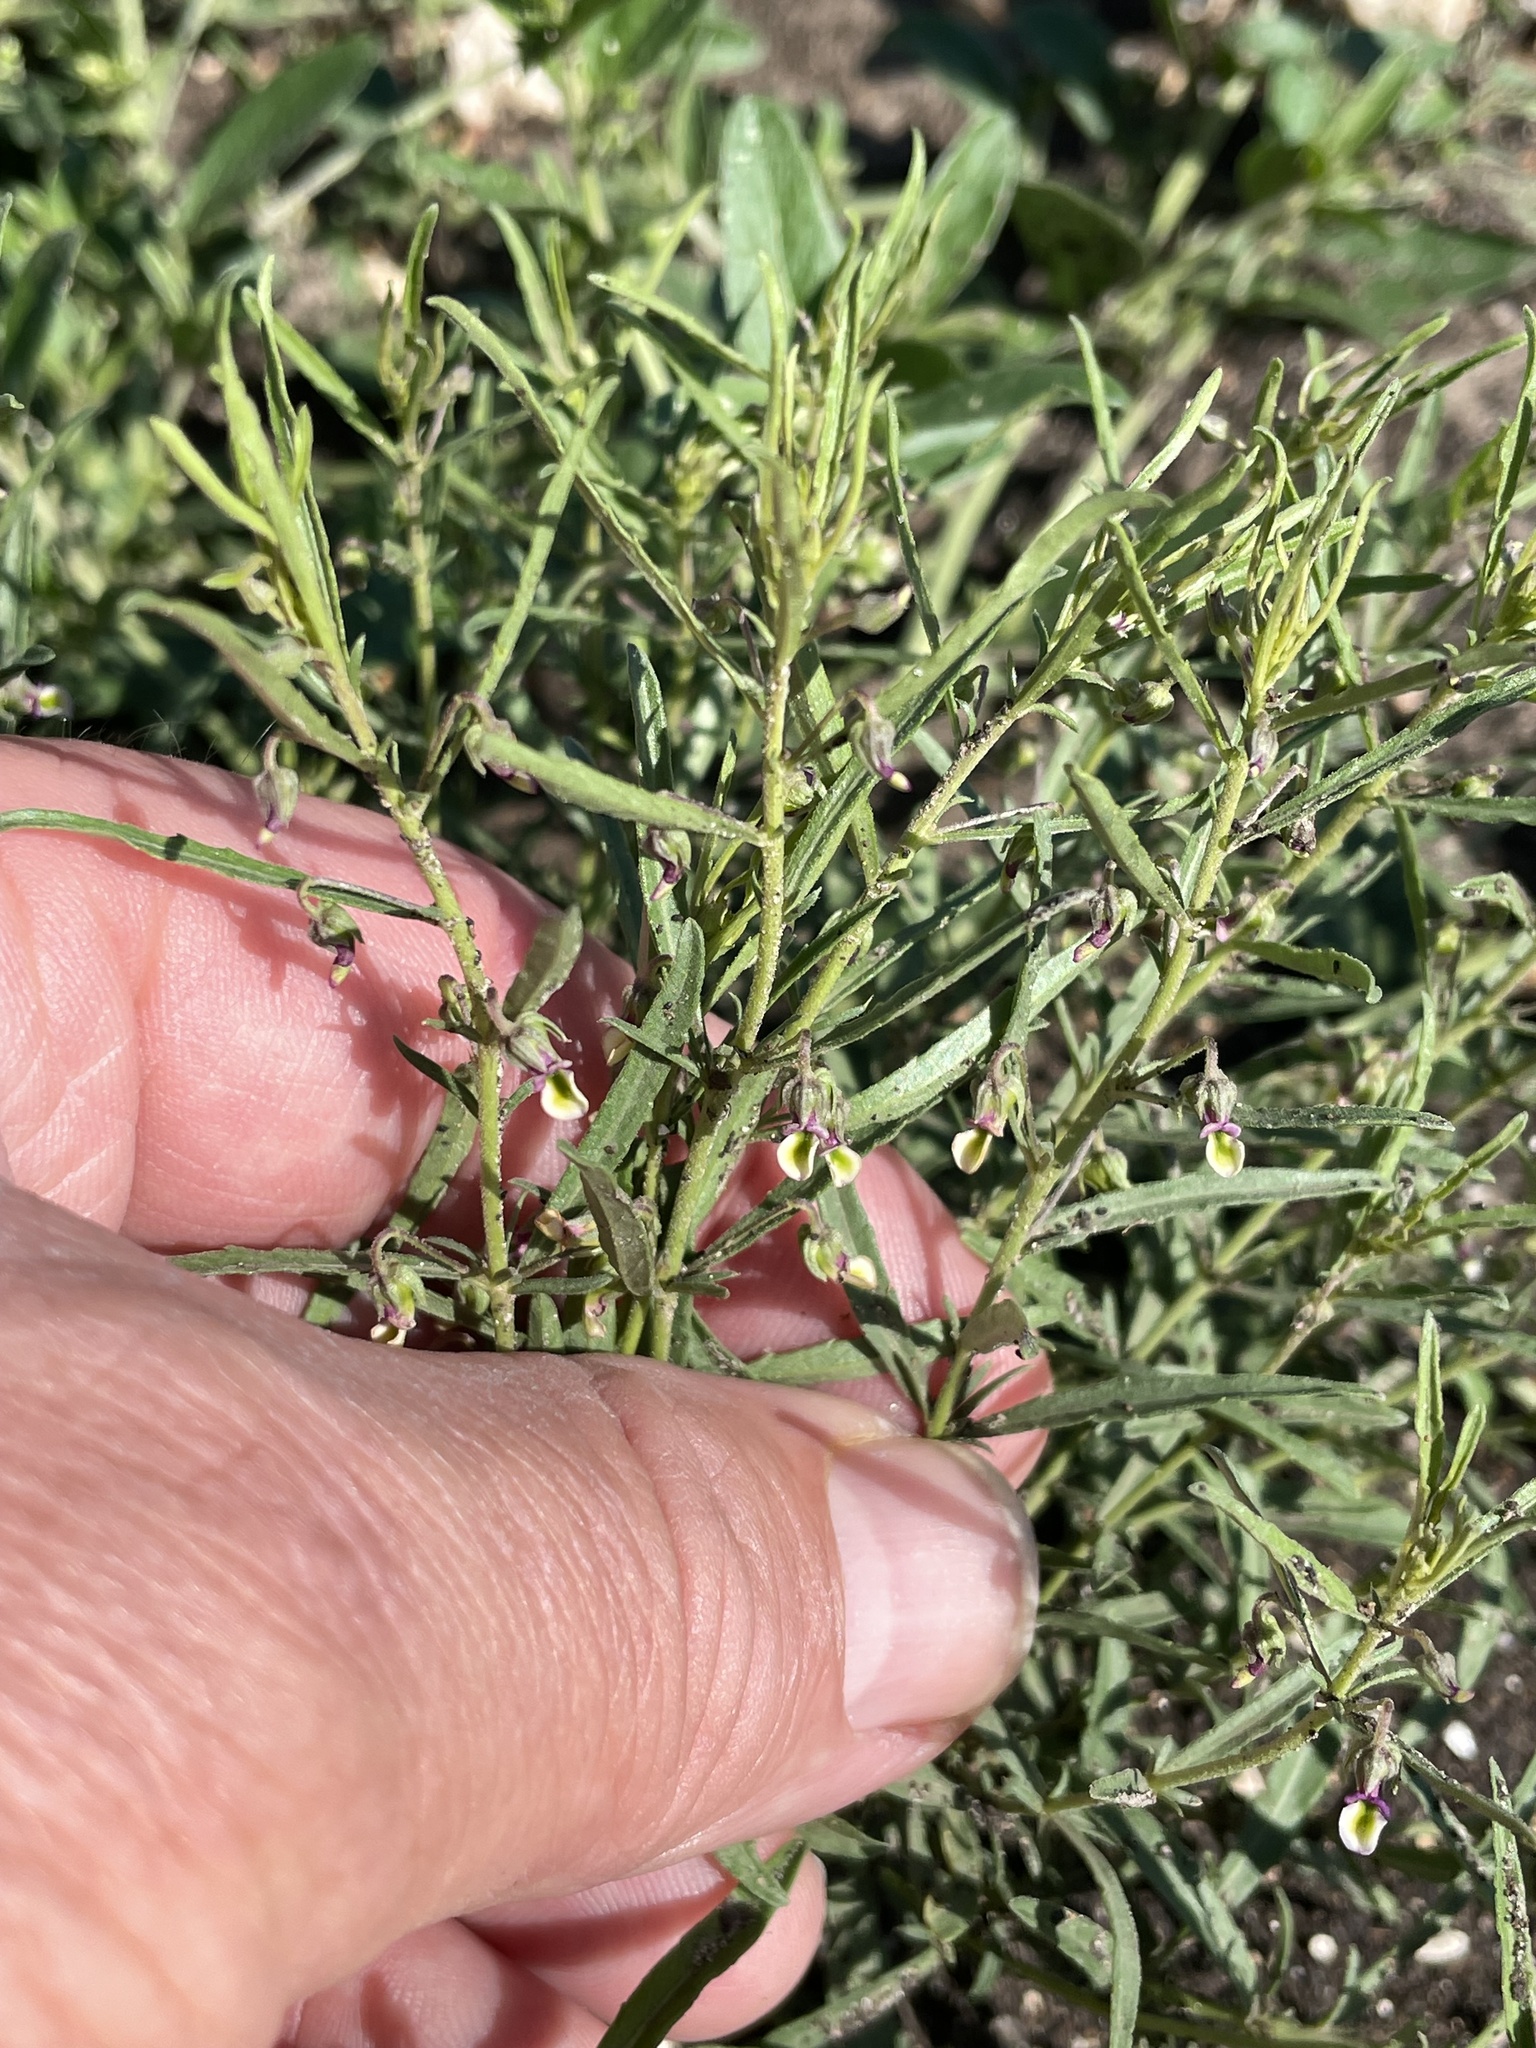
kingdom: Plantae
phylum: Tracheophyta
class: Magnoliopsida
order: Malpighiales
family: Violaceae
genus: Pombalia
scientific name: Pombalia verticillata
